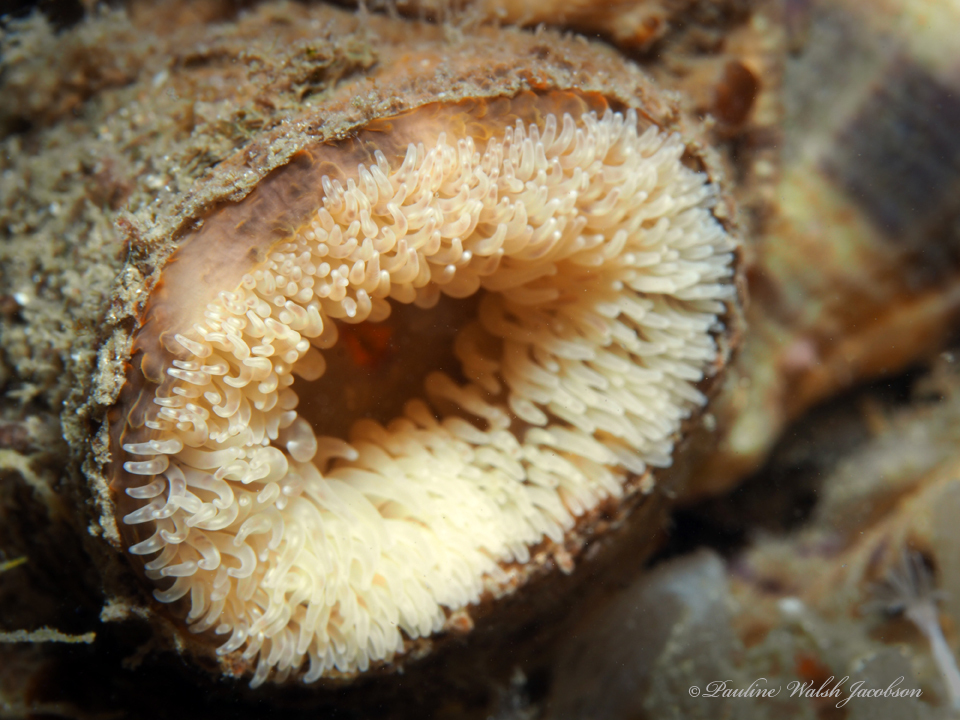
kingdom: Animalia
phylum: Cnidaria
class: Anthozoa
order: Actiniaria
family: Hormathiidae
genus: Calliactis
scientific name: Calliactis tricolor
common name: Hermit anemone
